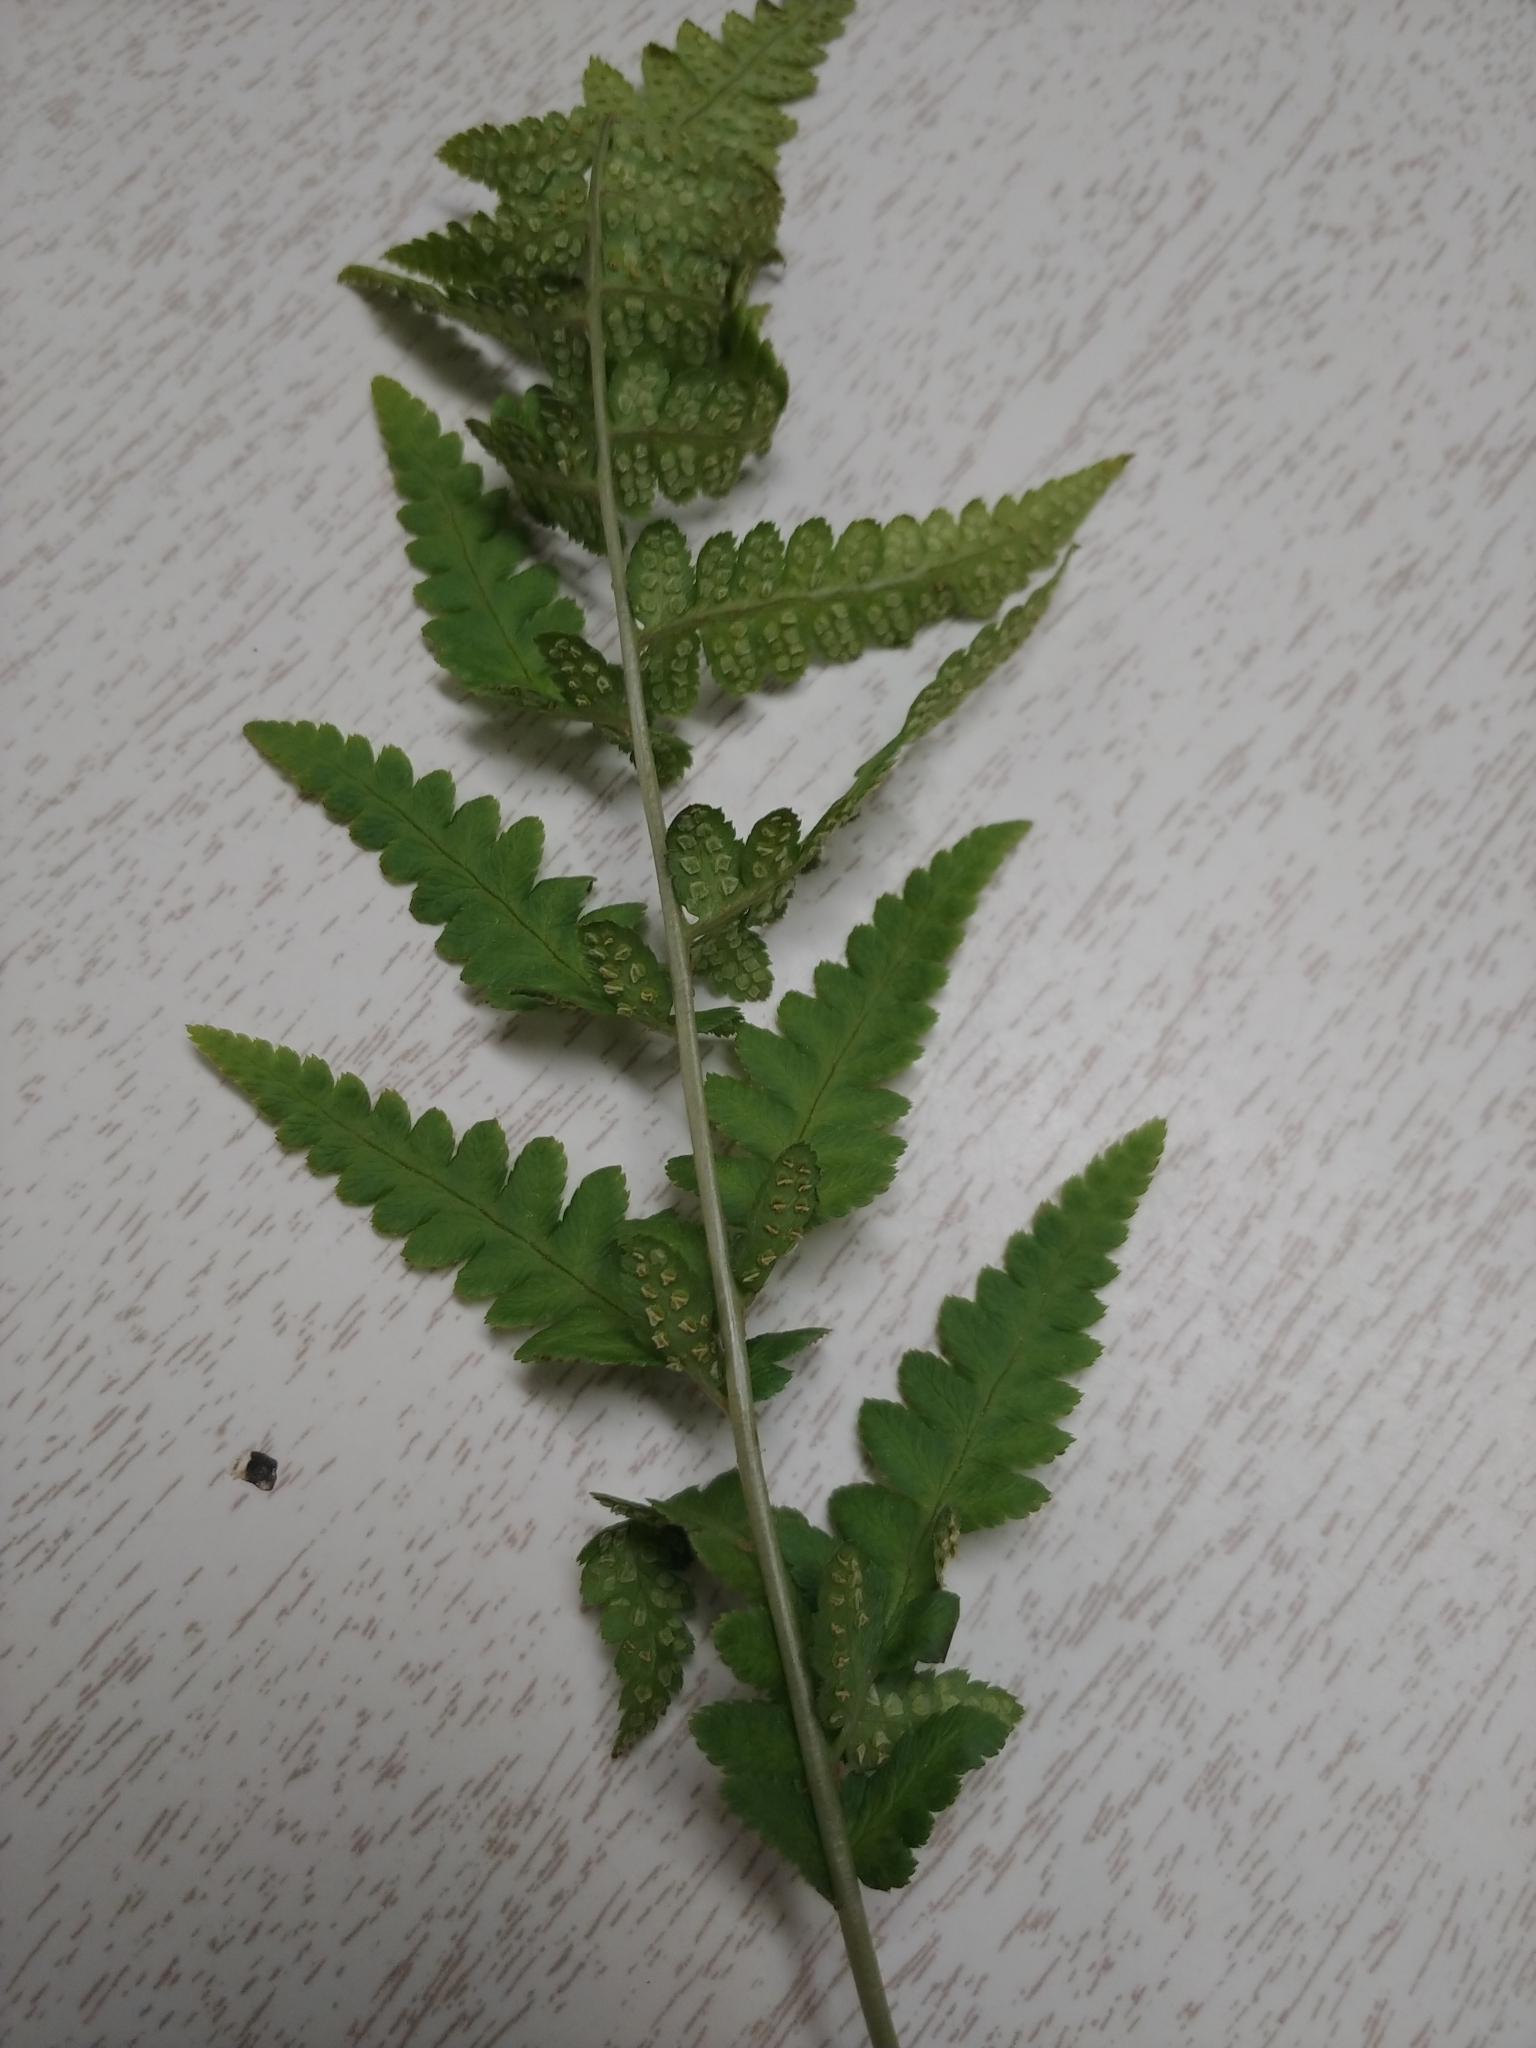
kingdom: Plantae
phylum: Tracheophyta
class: Polypodiopsida
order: Polypodiales
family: Dryopteridaceae
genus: Dryopteris
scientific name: Dryopteris cristata
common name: Crested wood fern
